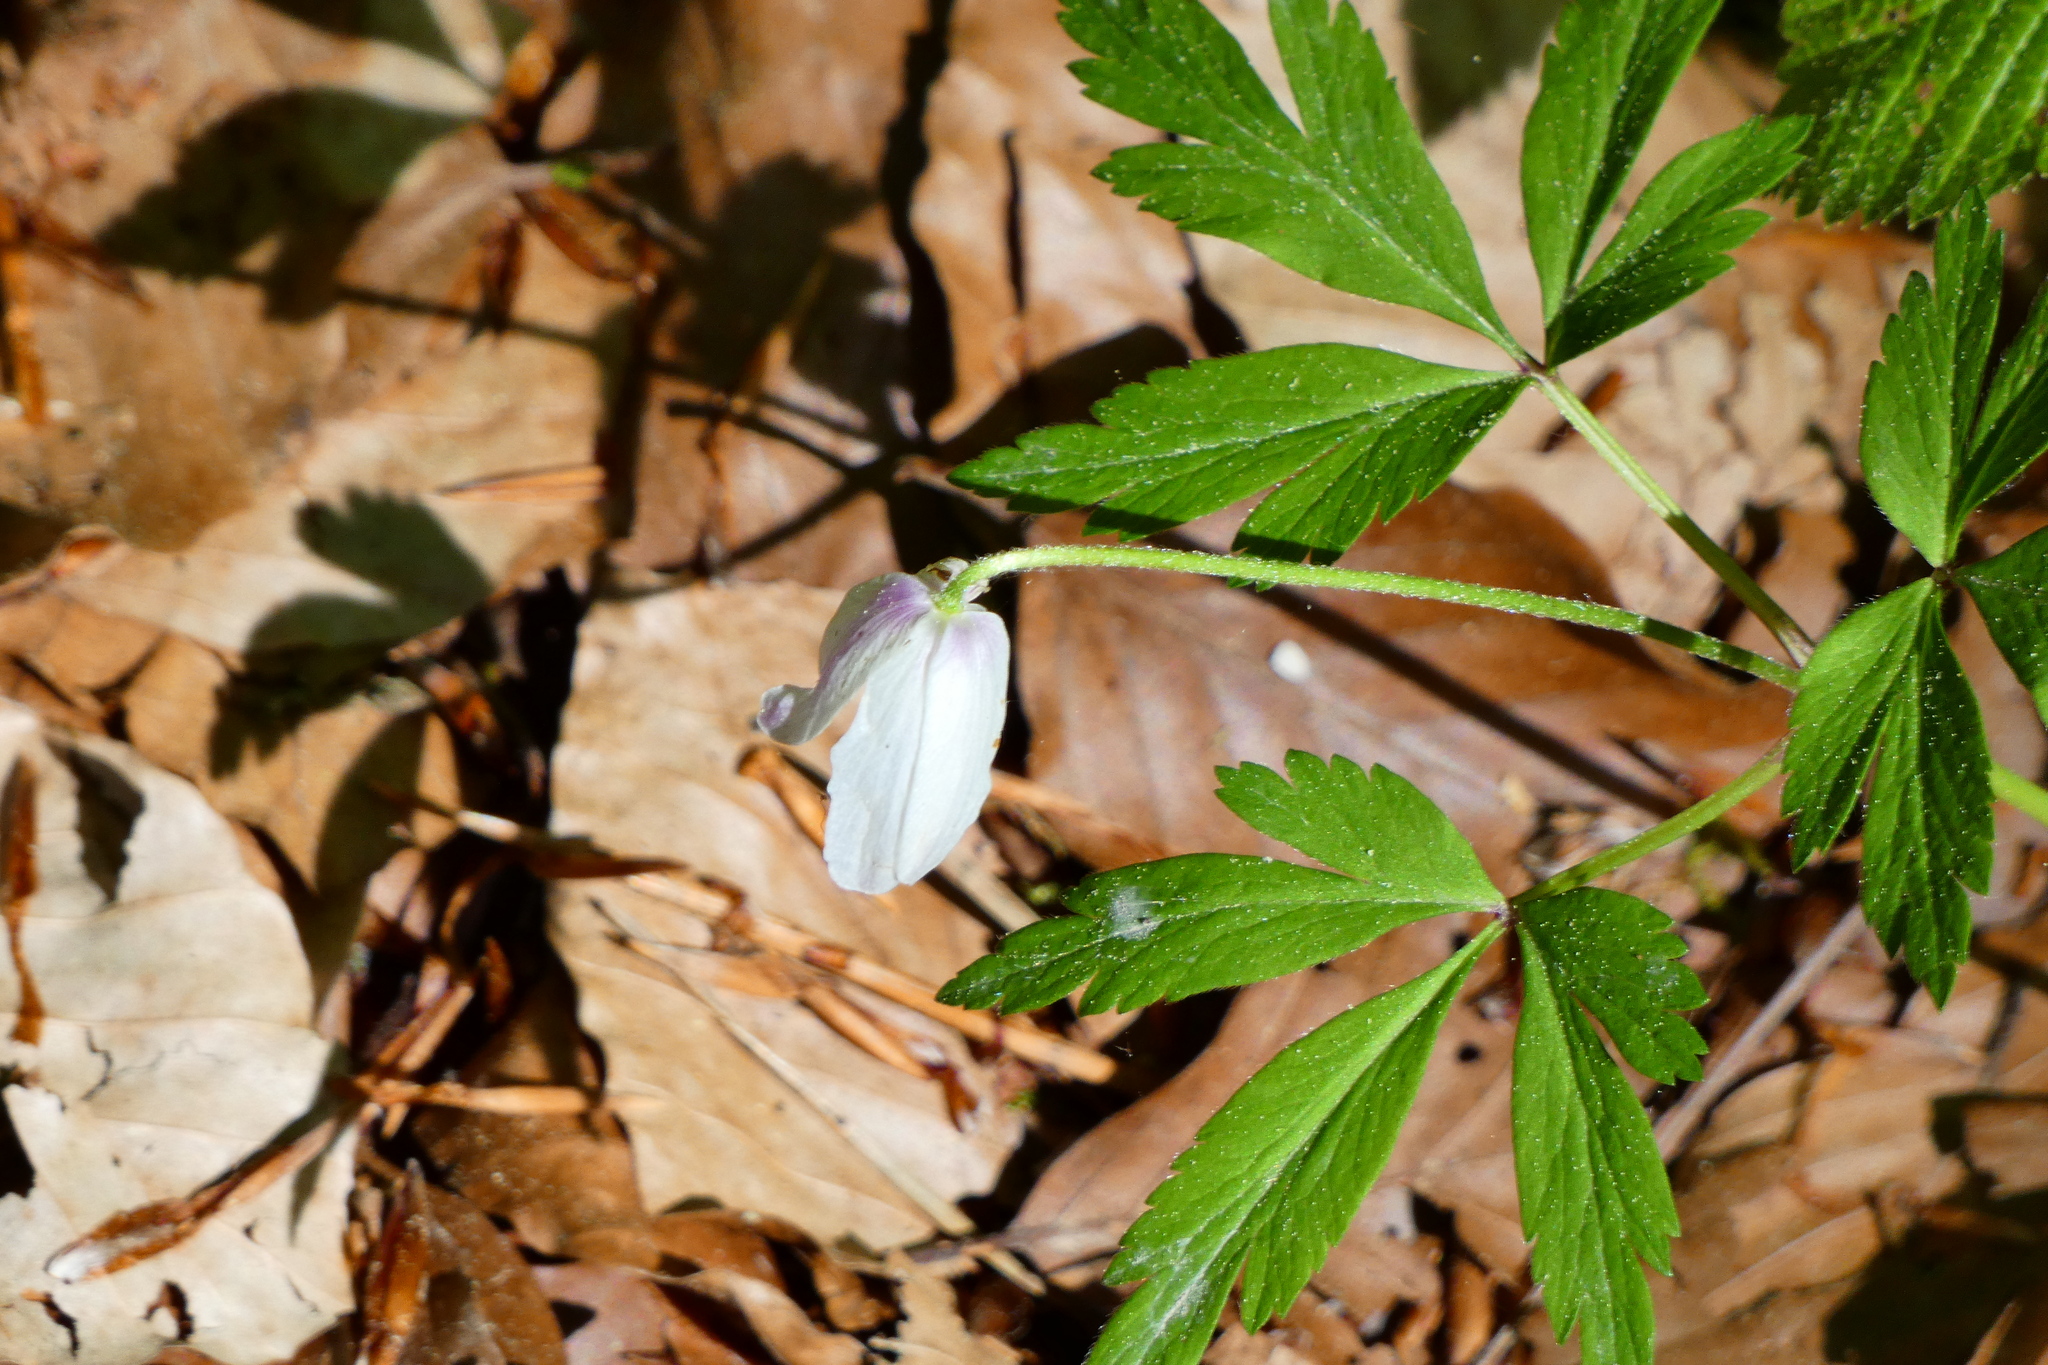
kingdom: Plantae
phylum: Tracheophyta
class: Magnoliopsida
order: Ranunculales
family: Ranunculaceae
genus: Anemone
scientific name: Anemone nemorosa
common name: Wood anemone
